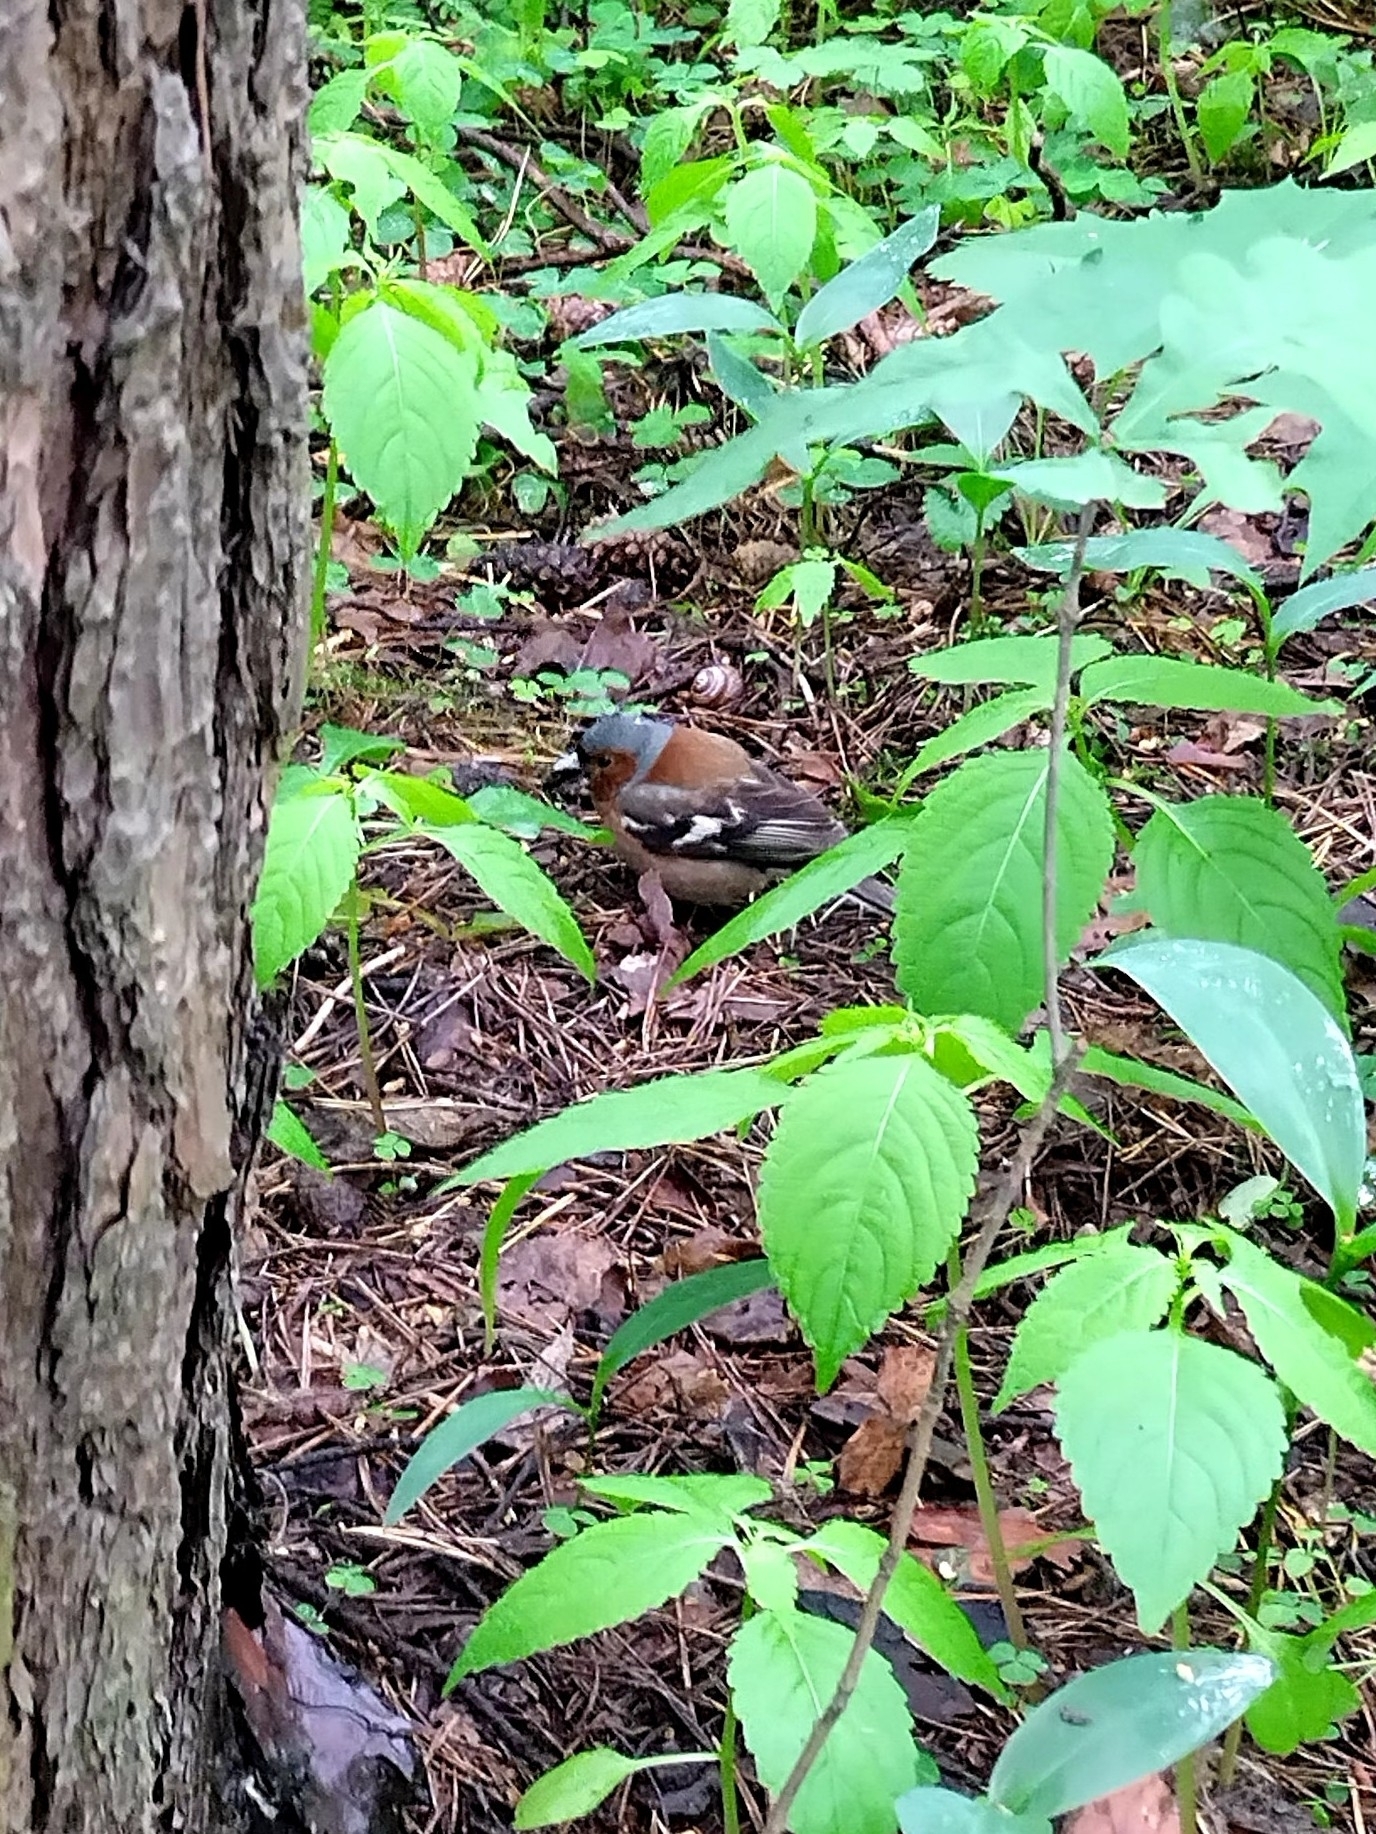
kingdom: Animalia
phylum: Chordata
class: Aves
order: Passeriformes
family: Fringillidae
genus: Fringilla
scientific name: Fringilla coelebs
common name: Common chaffinch
